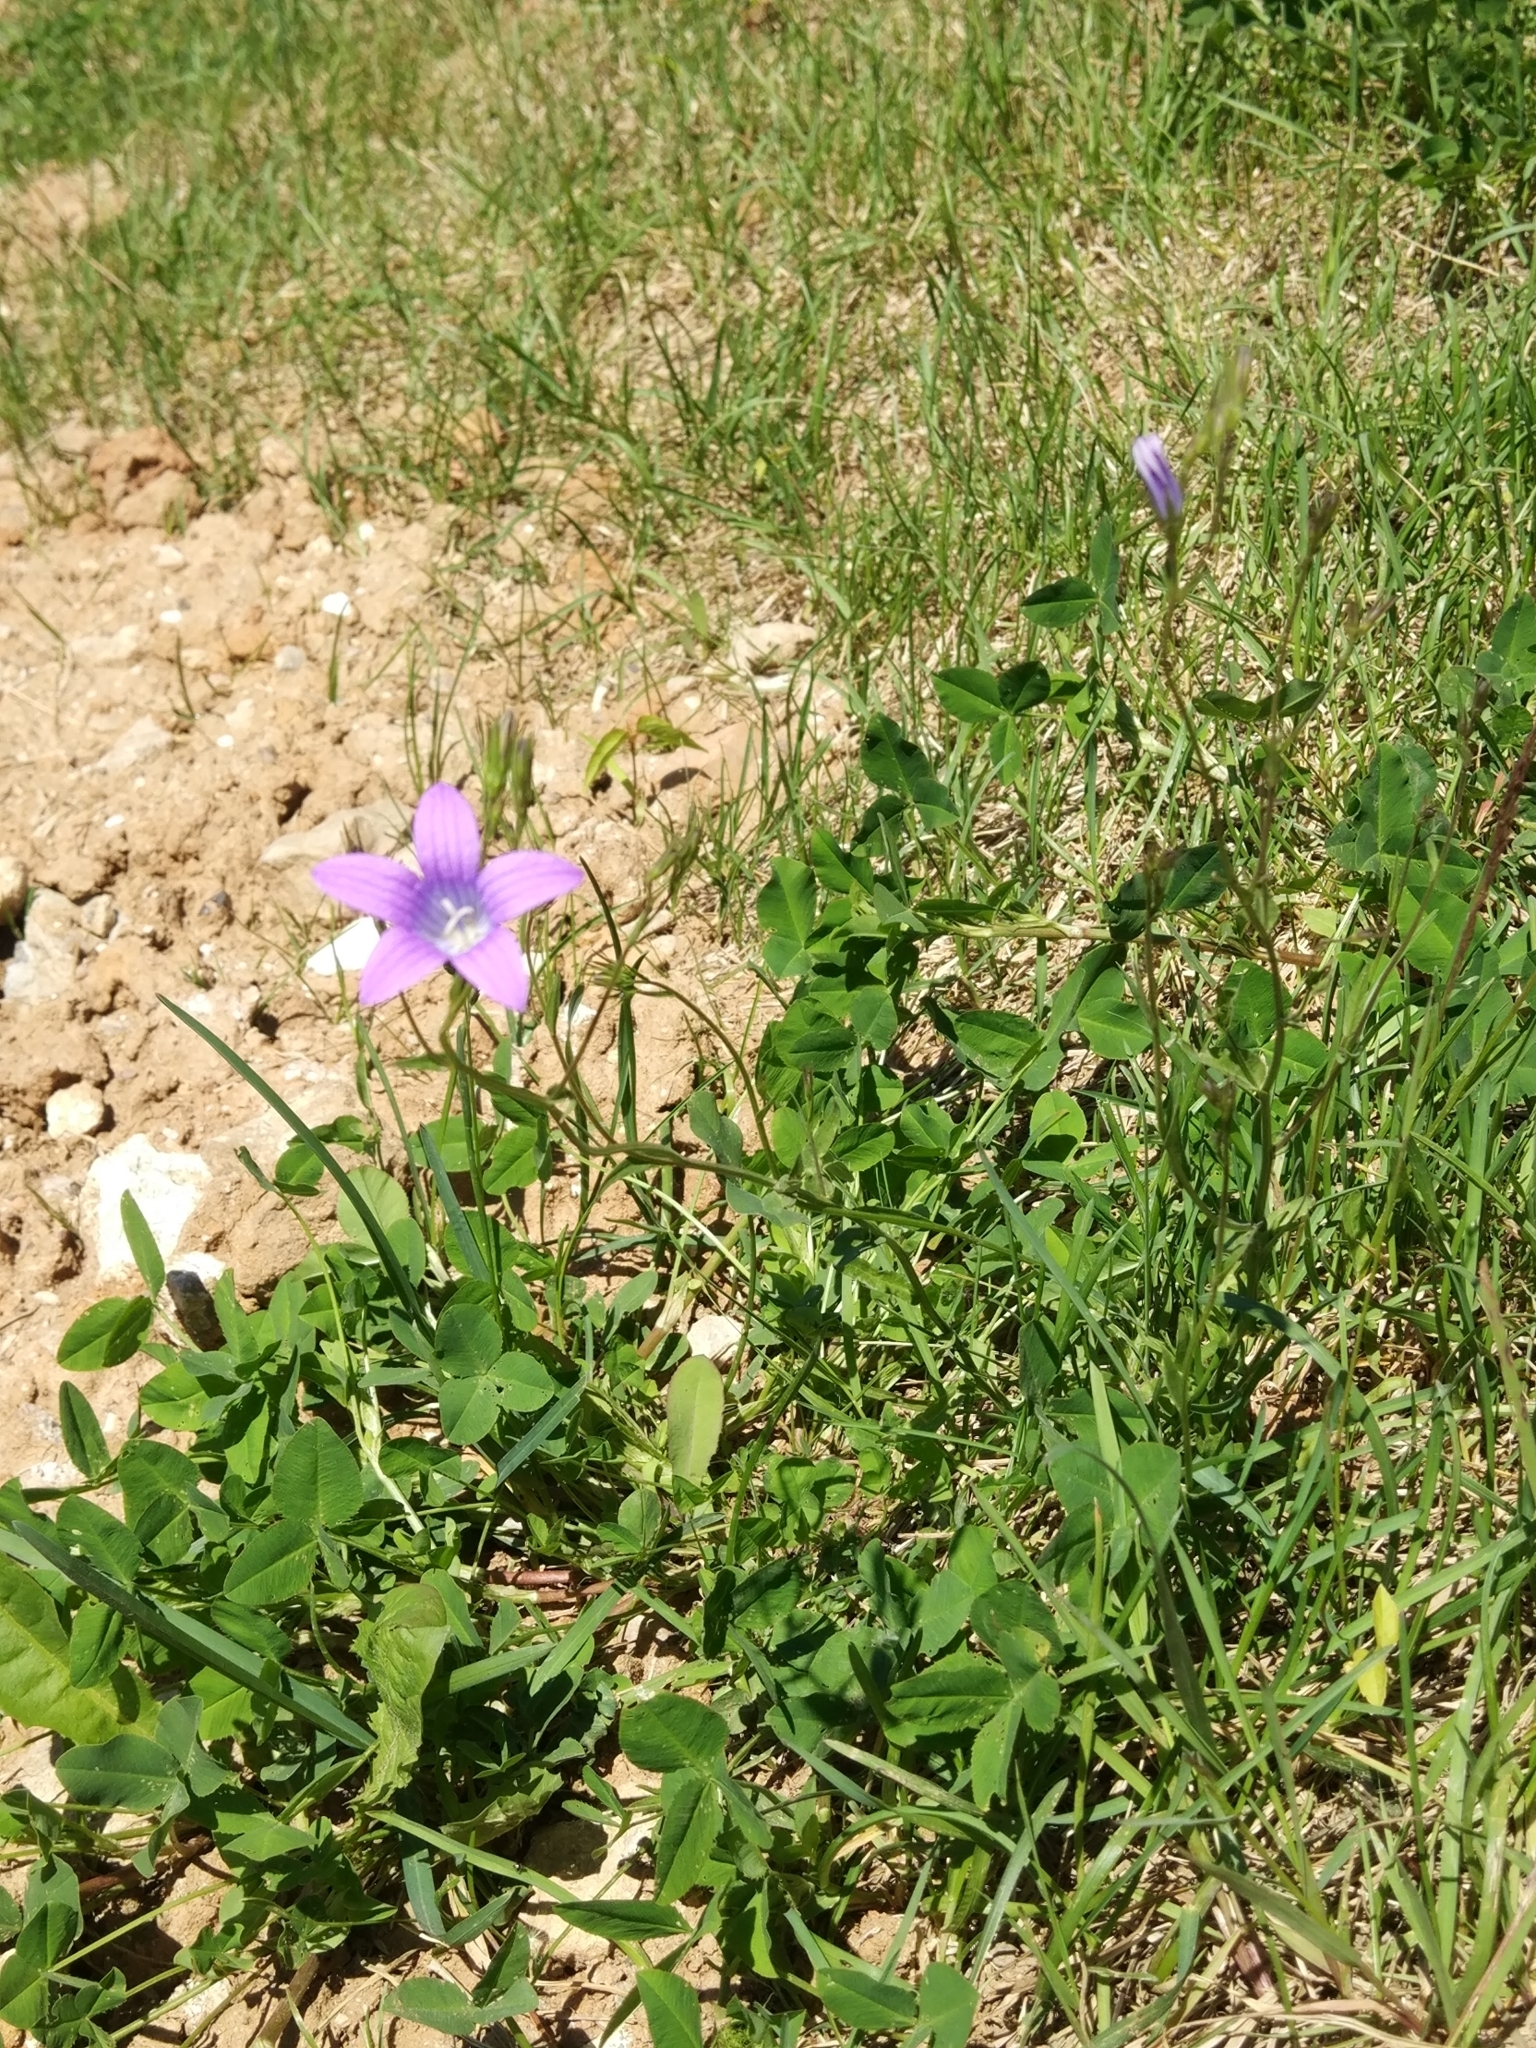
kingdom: Plantae
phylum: Tracheophyta
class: Magnoliopsida
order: Asterales
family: Campanulaceae
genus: Campanula
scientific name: Campanula patula
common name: Spreading bellflower
